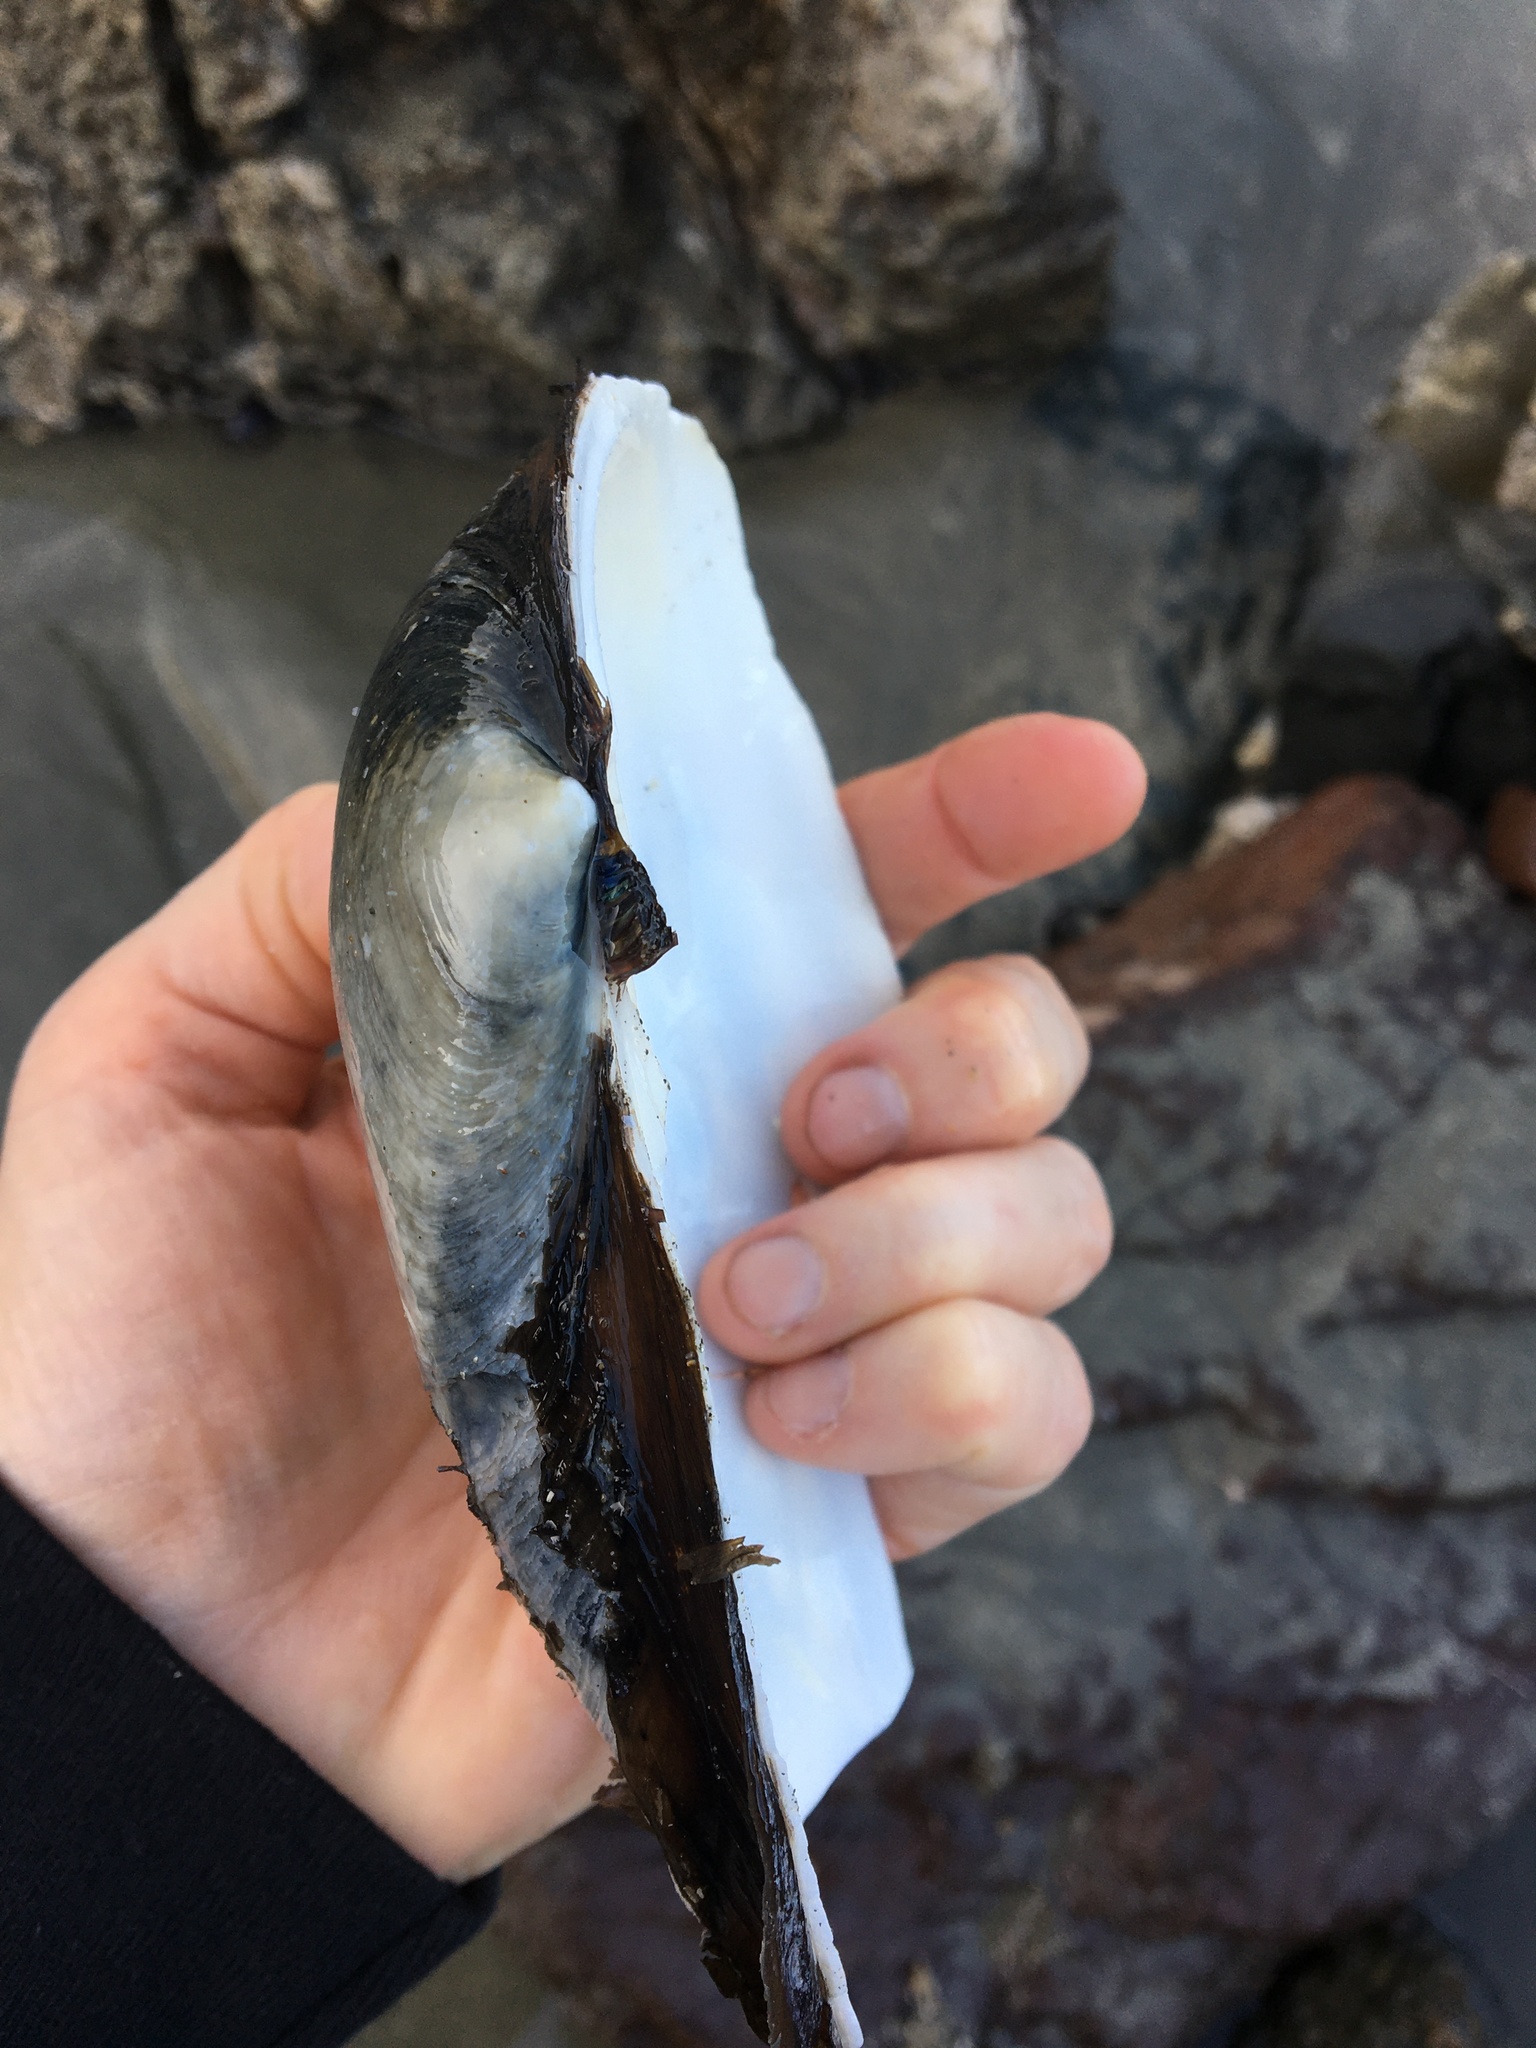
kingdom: Animalia
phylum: Mollusca
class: Bivalvia
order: Venerida
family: Mactridae
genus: Tresus
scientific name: Tresus nuttallii
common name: Pacific gaper clam
